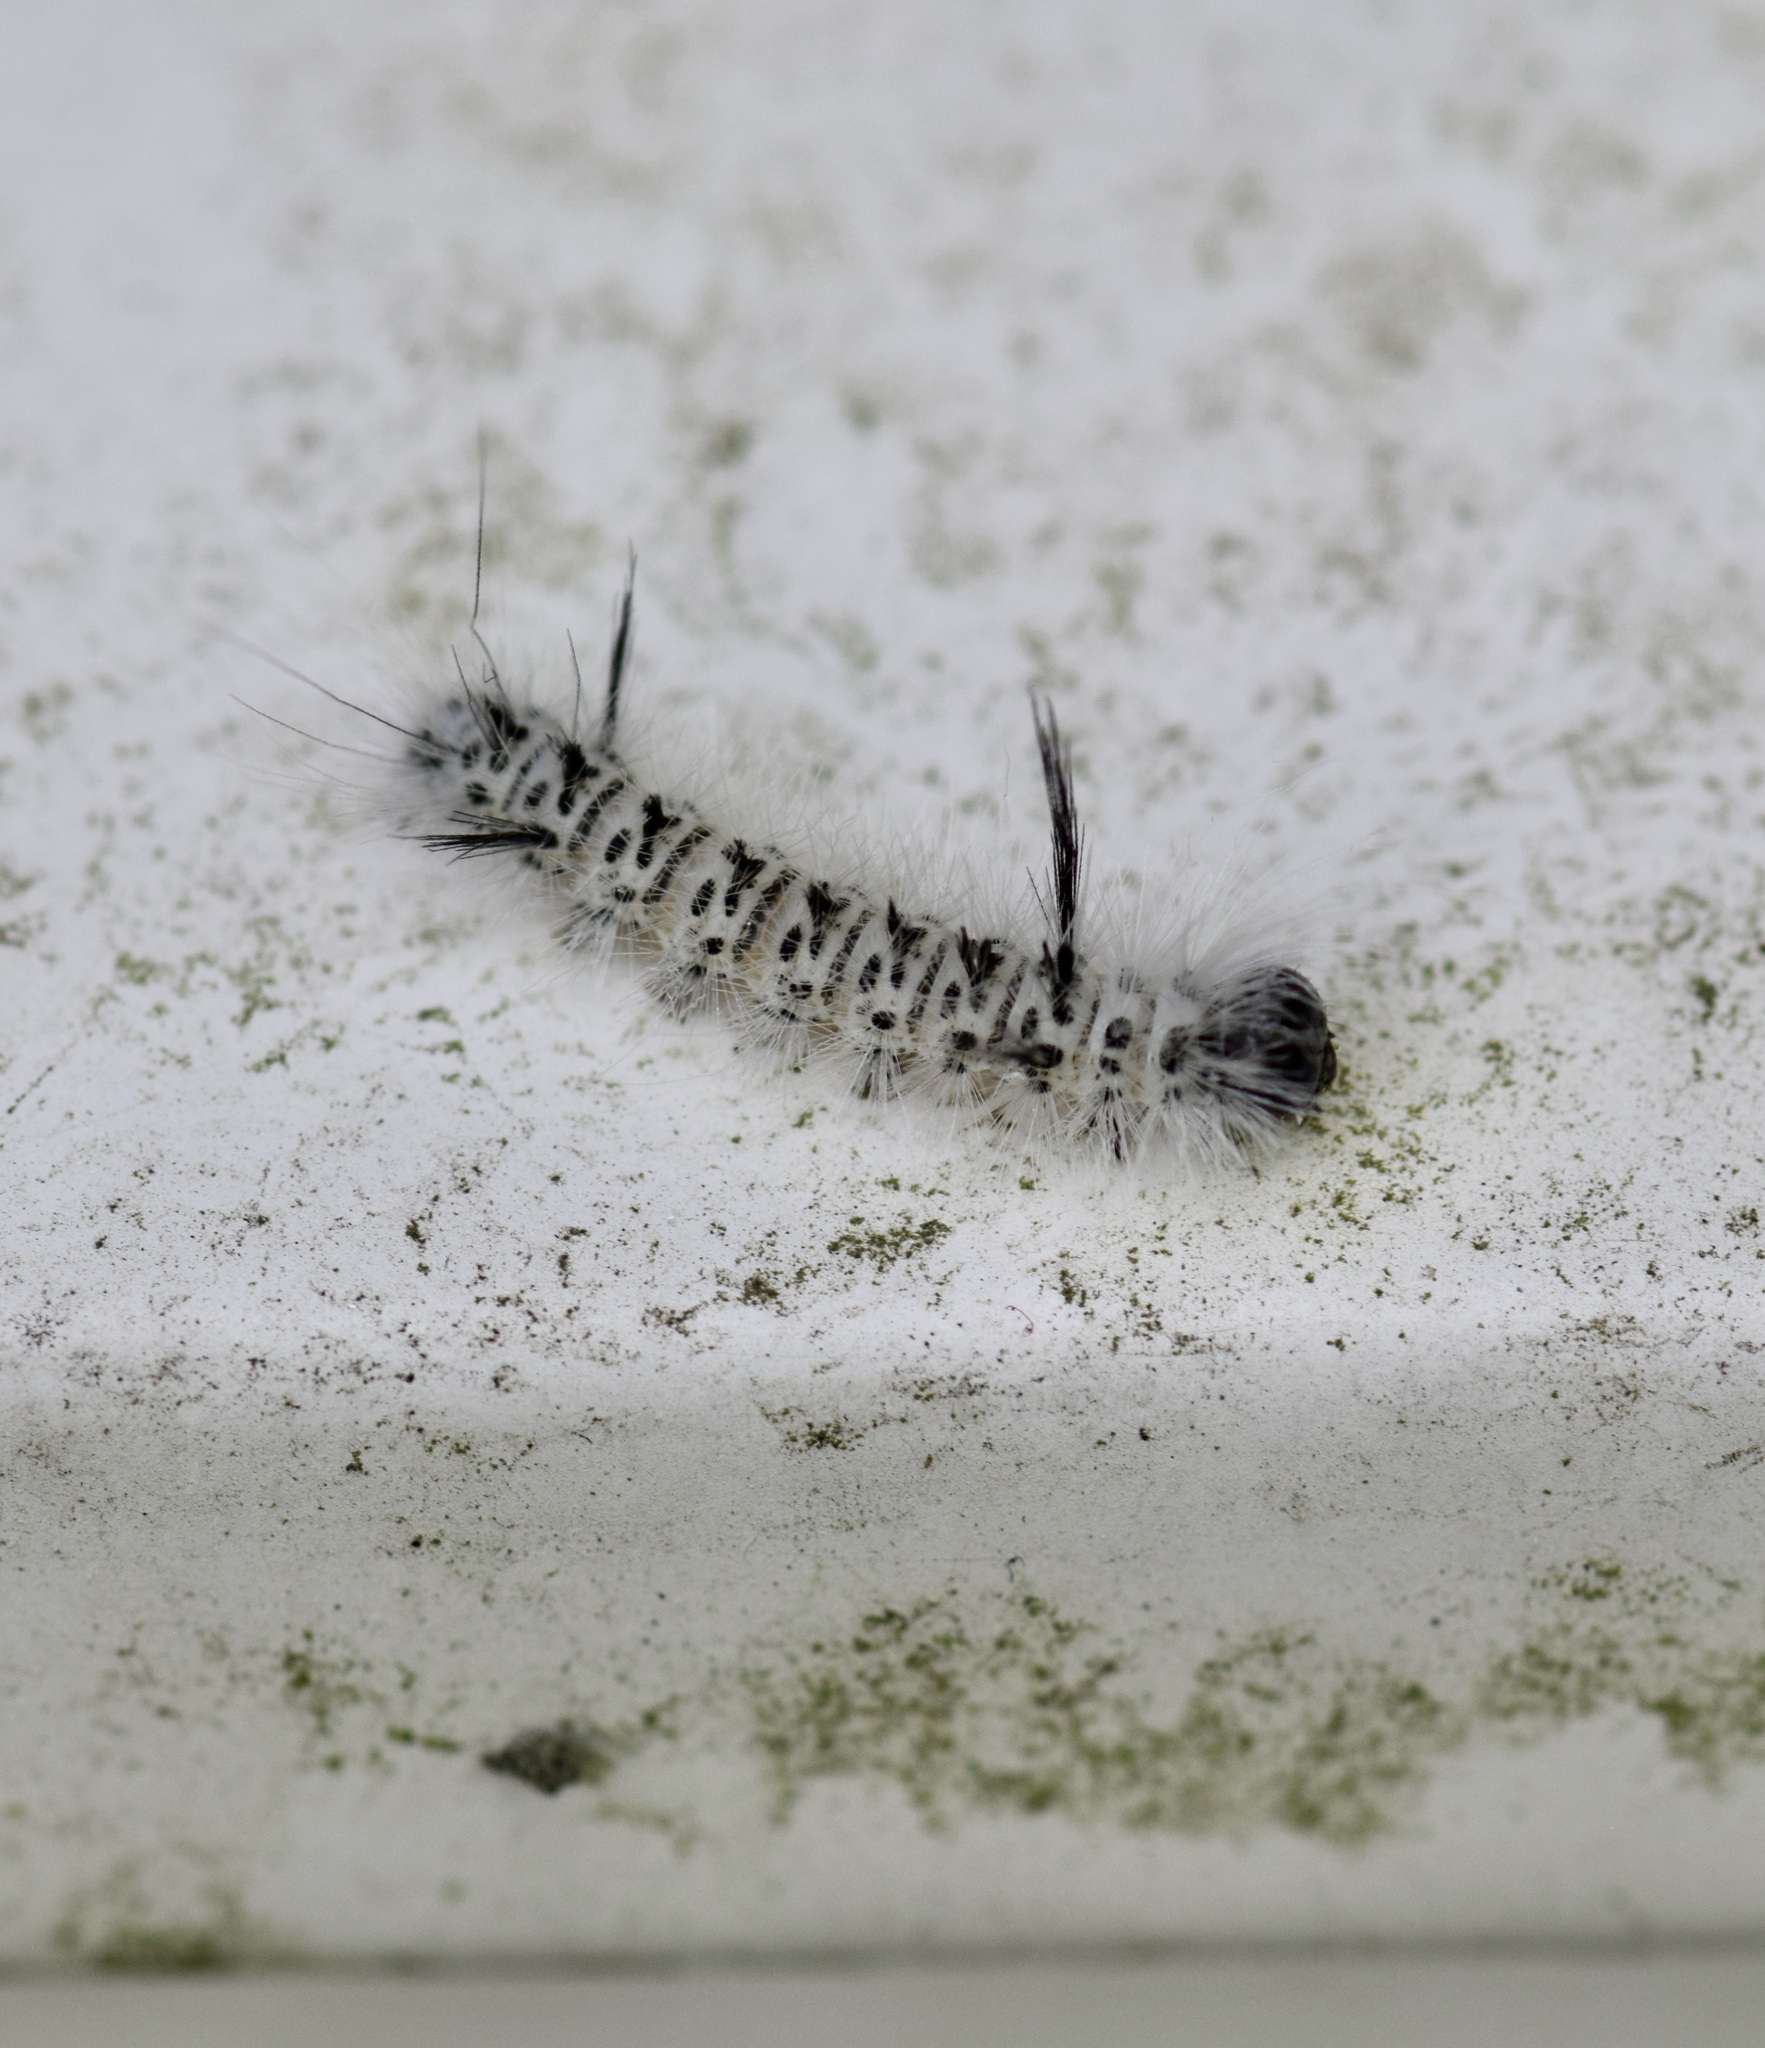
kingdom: Animalia
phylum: Arthropoda
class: Insecta
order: Lepidoptera
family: Erebidae
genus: Lophocampa
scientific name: Lophocampa caryae
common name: Hickory tussock moth
